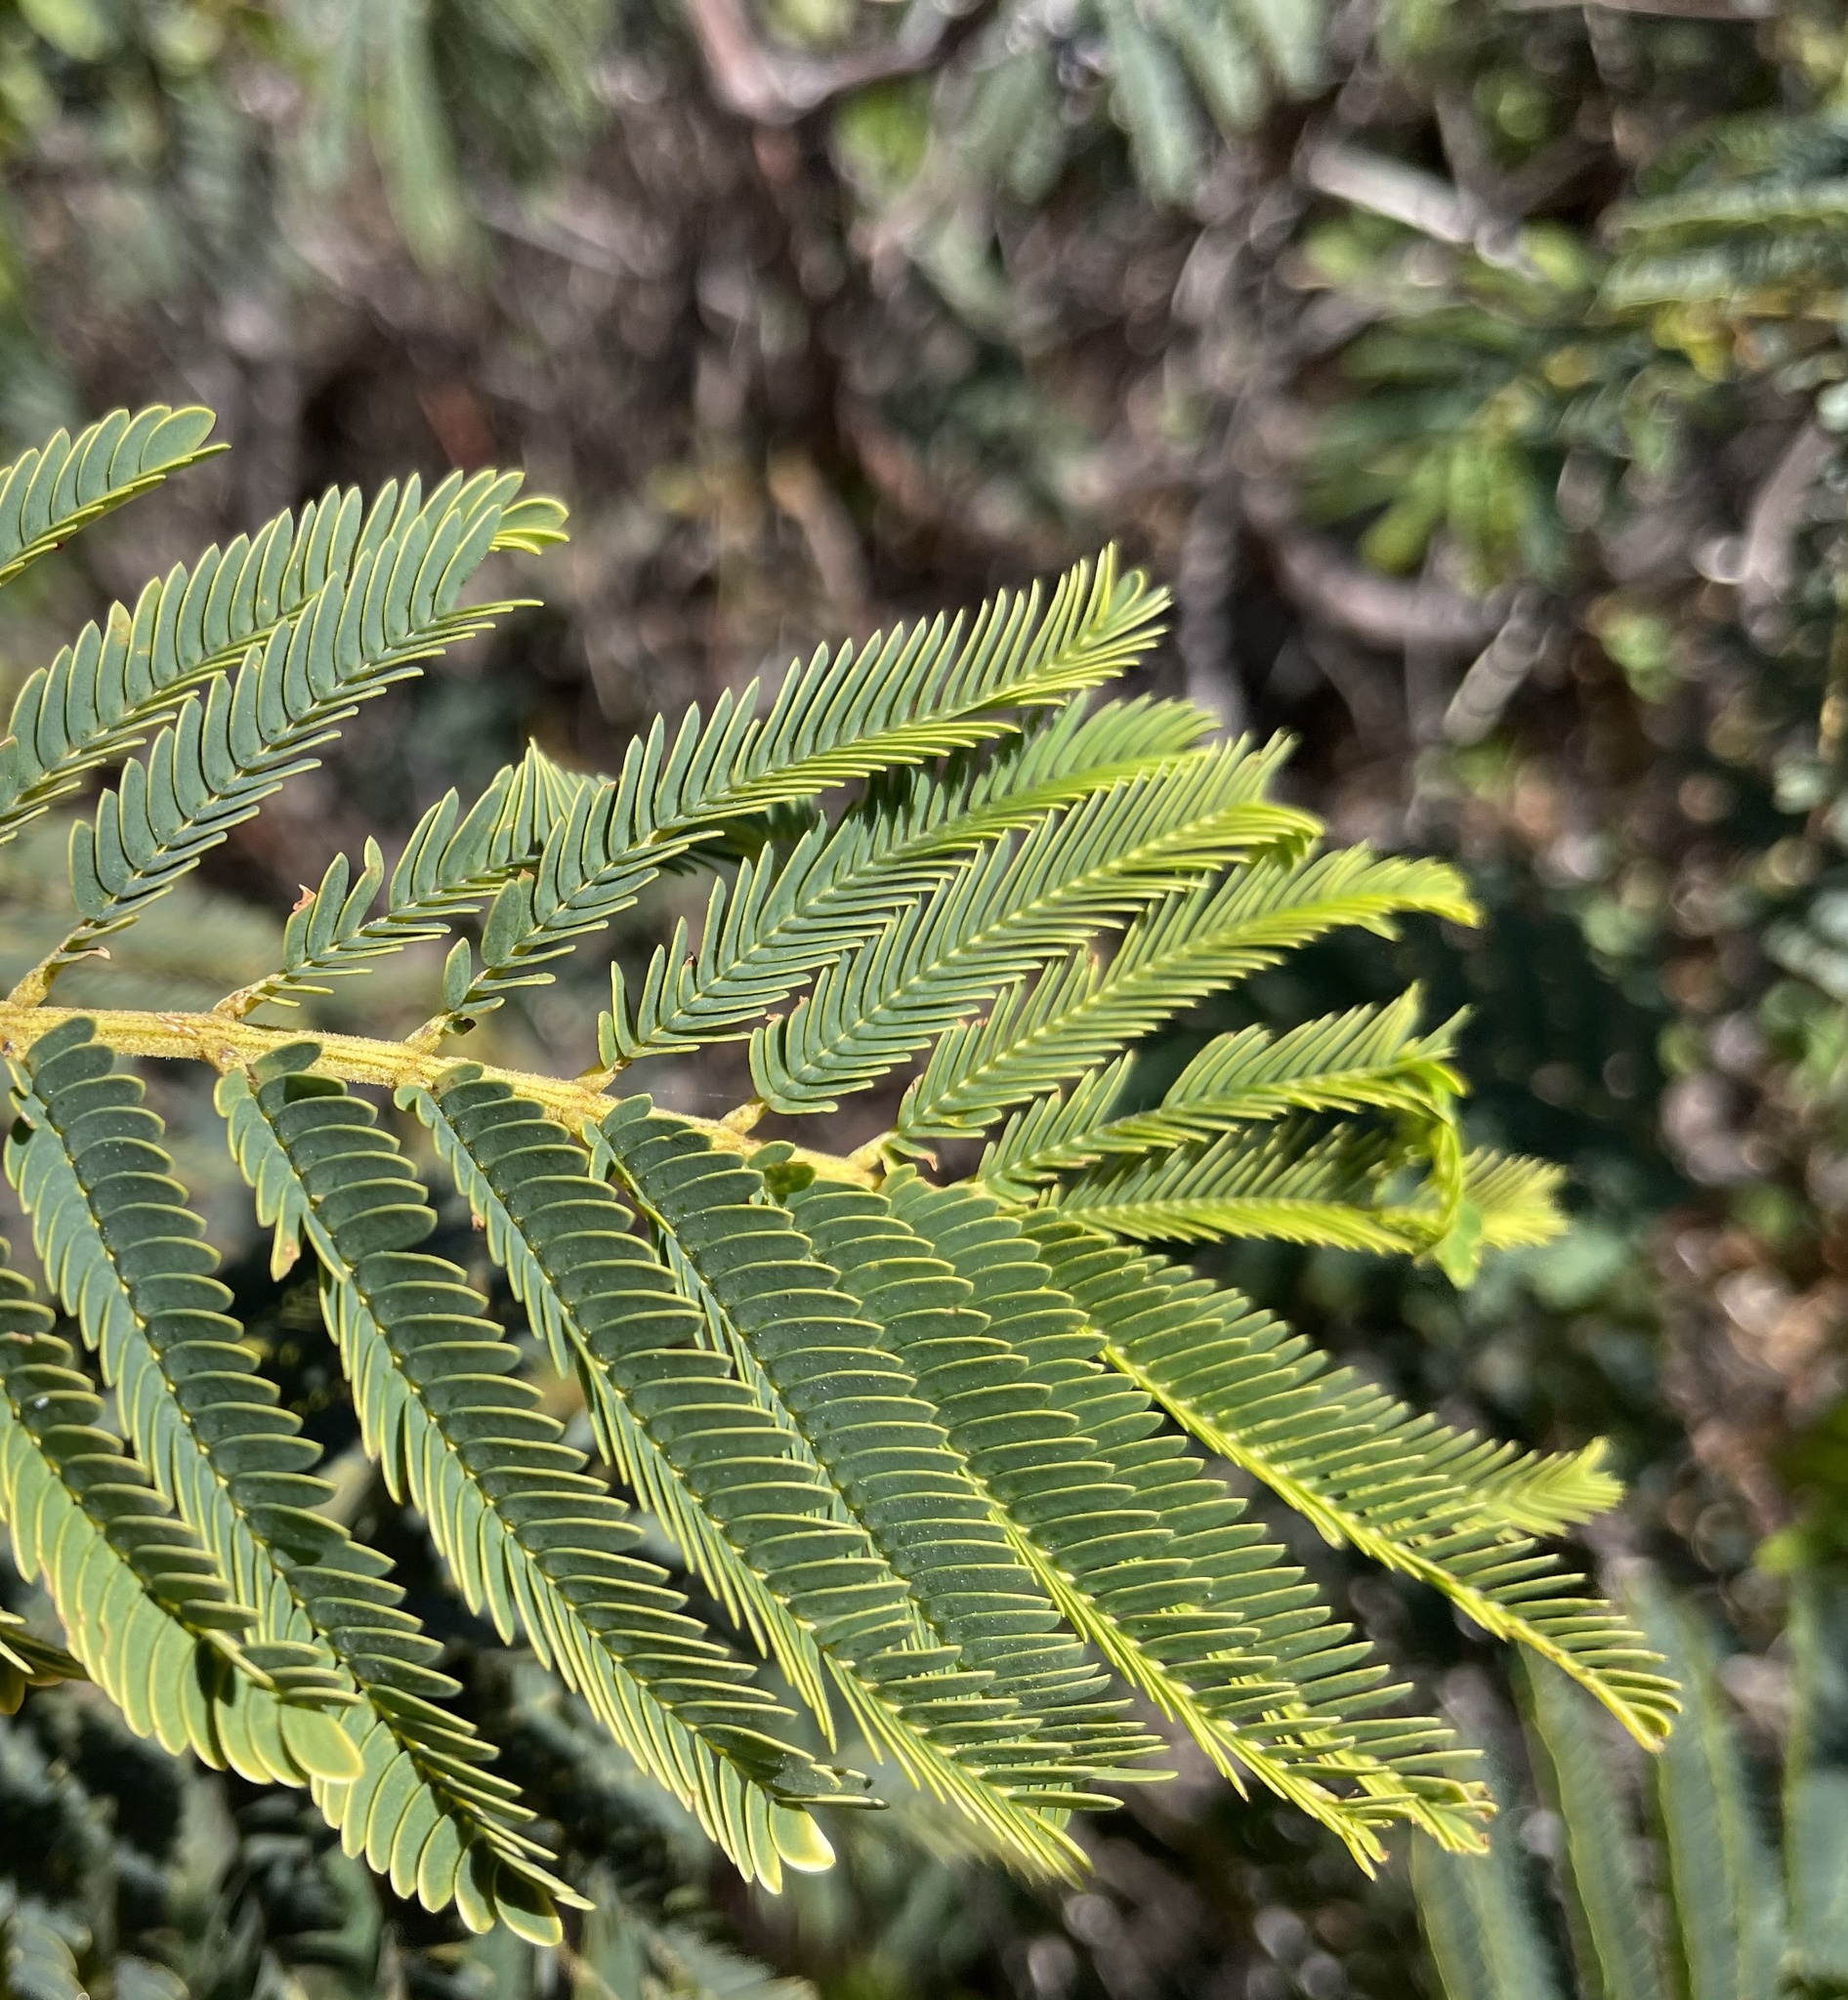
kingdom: Plantae
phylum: Tracheophyta
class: Magnoliopsida
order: Fabales
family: Fabaceae
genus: Paraserianthes
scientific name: Paraserianthes lophantha
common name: Plume albizia
